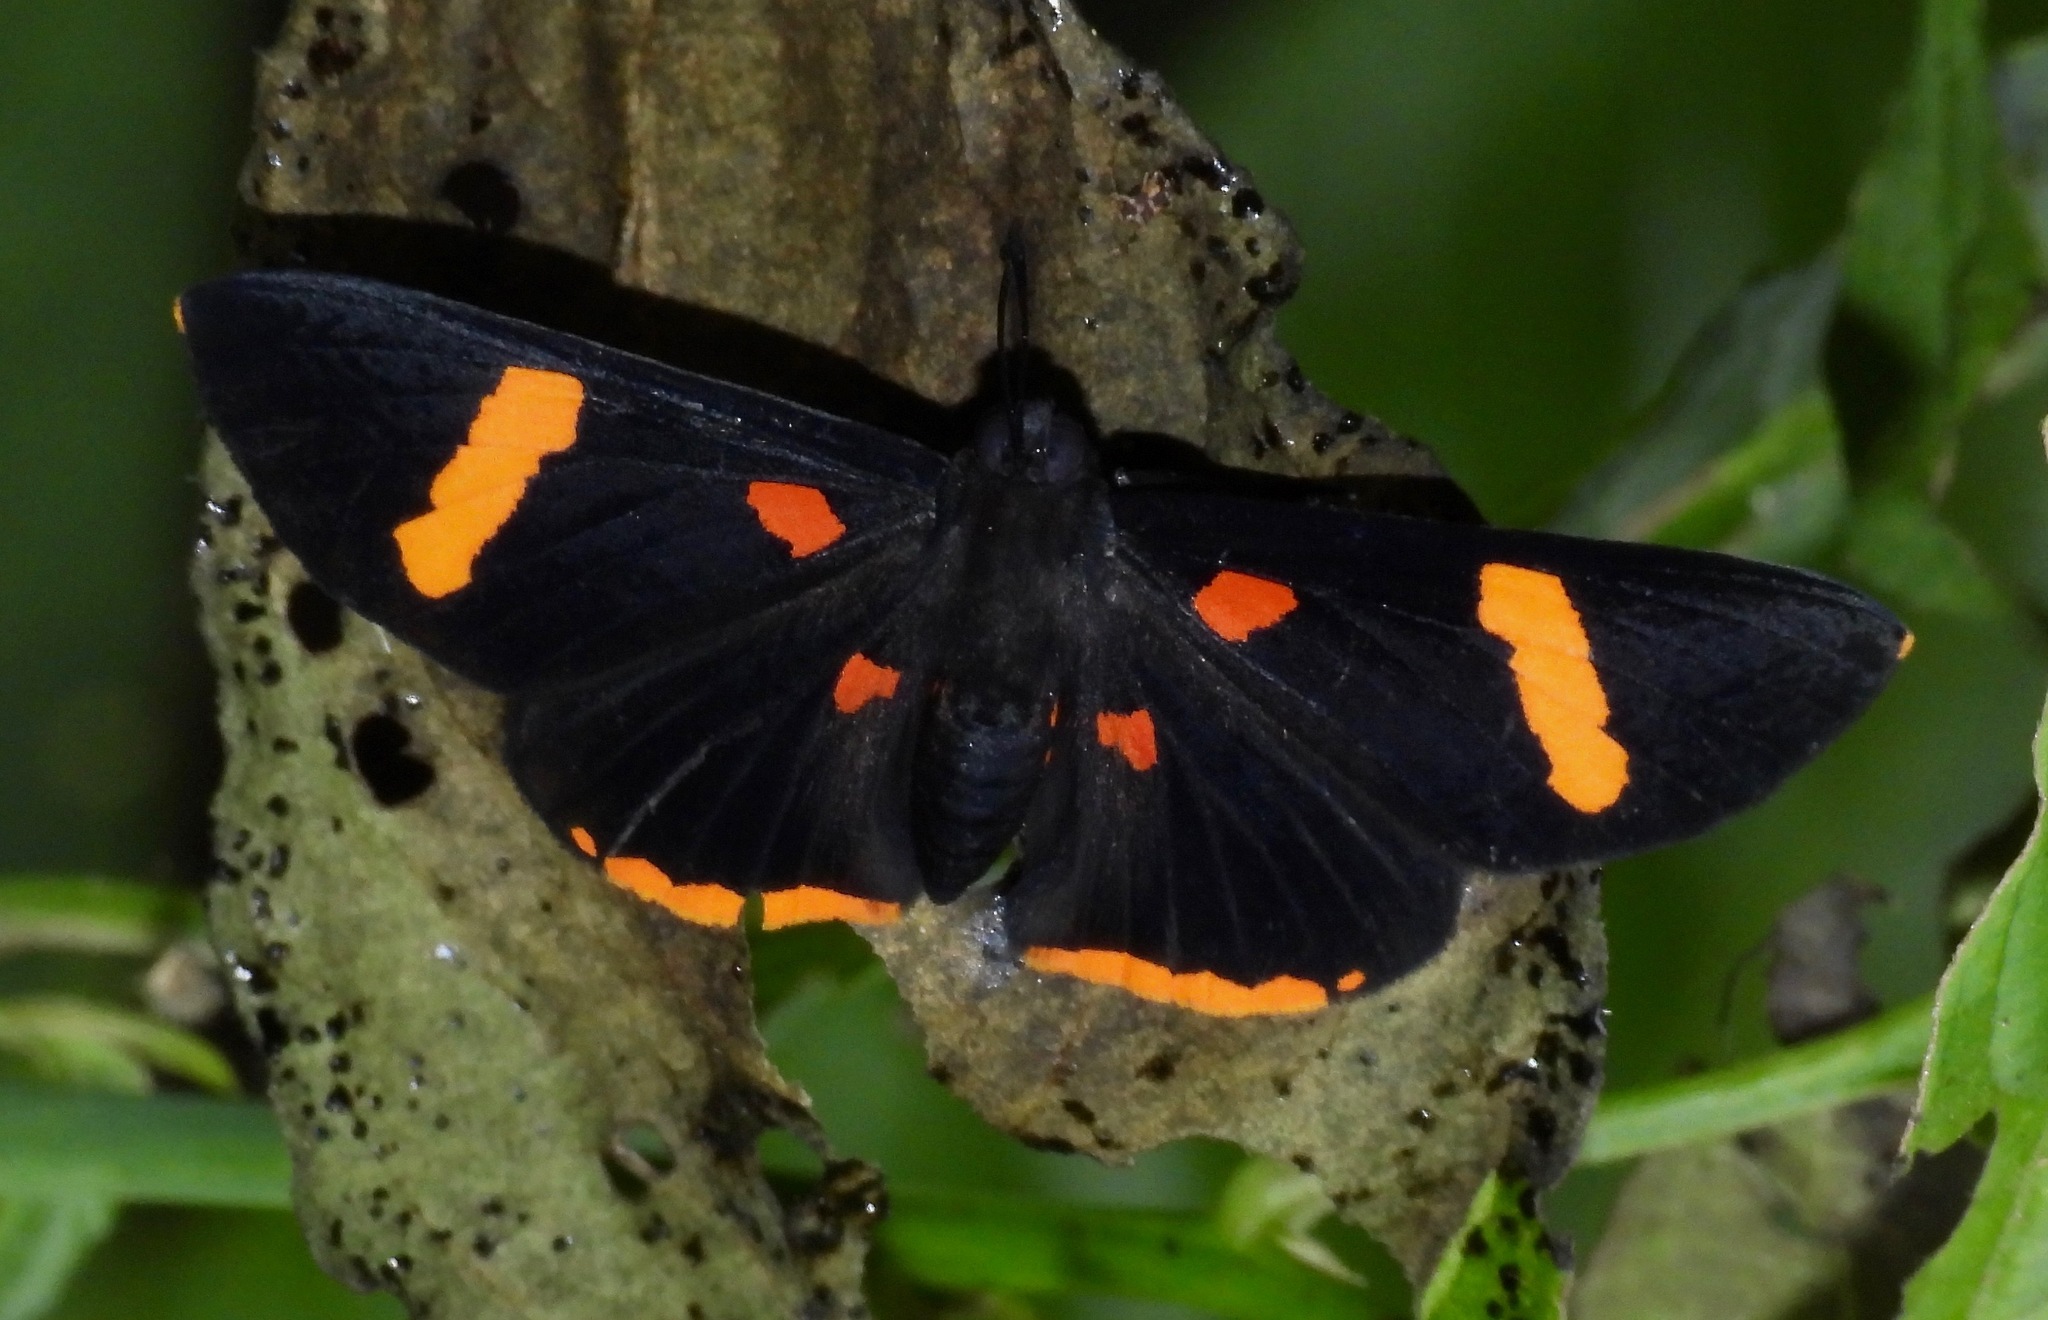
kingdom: Animalia
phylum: Arthropoda
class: Insecta
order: Lepidoptera
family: Lycaenidae
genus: Melanis
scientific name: Melanis electron
